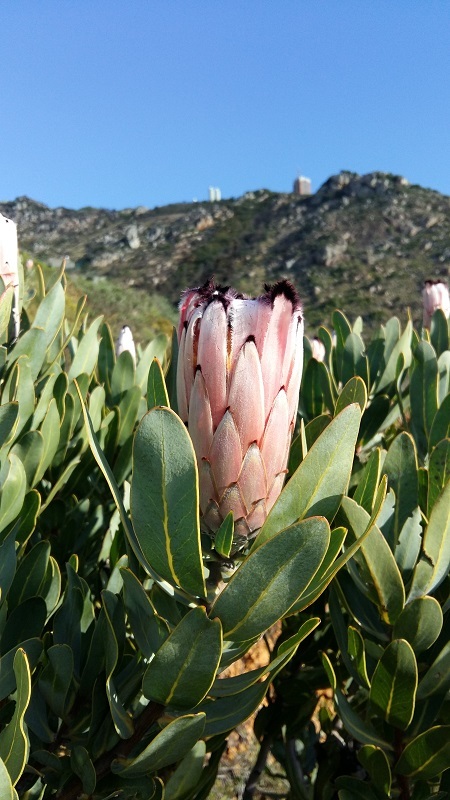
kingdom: Plantae
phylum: Tracheophyta
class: Magnoliopsida
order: Proteales
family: Proteaceae
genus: Protea
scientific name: Protea laurifolia
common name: Grey-leaf sugarbsh
